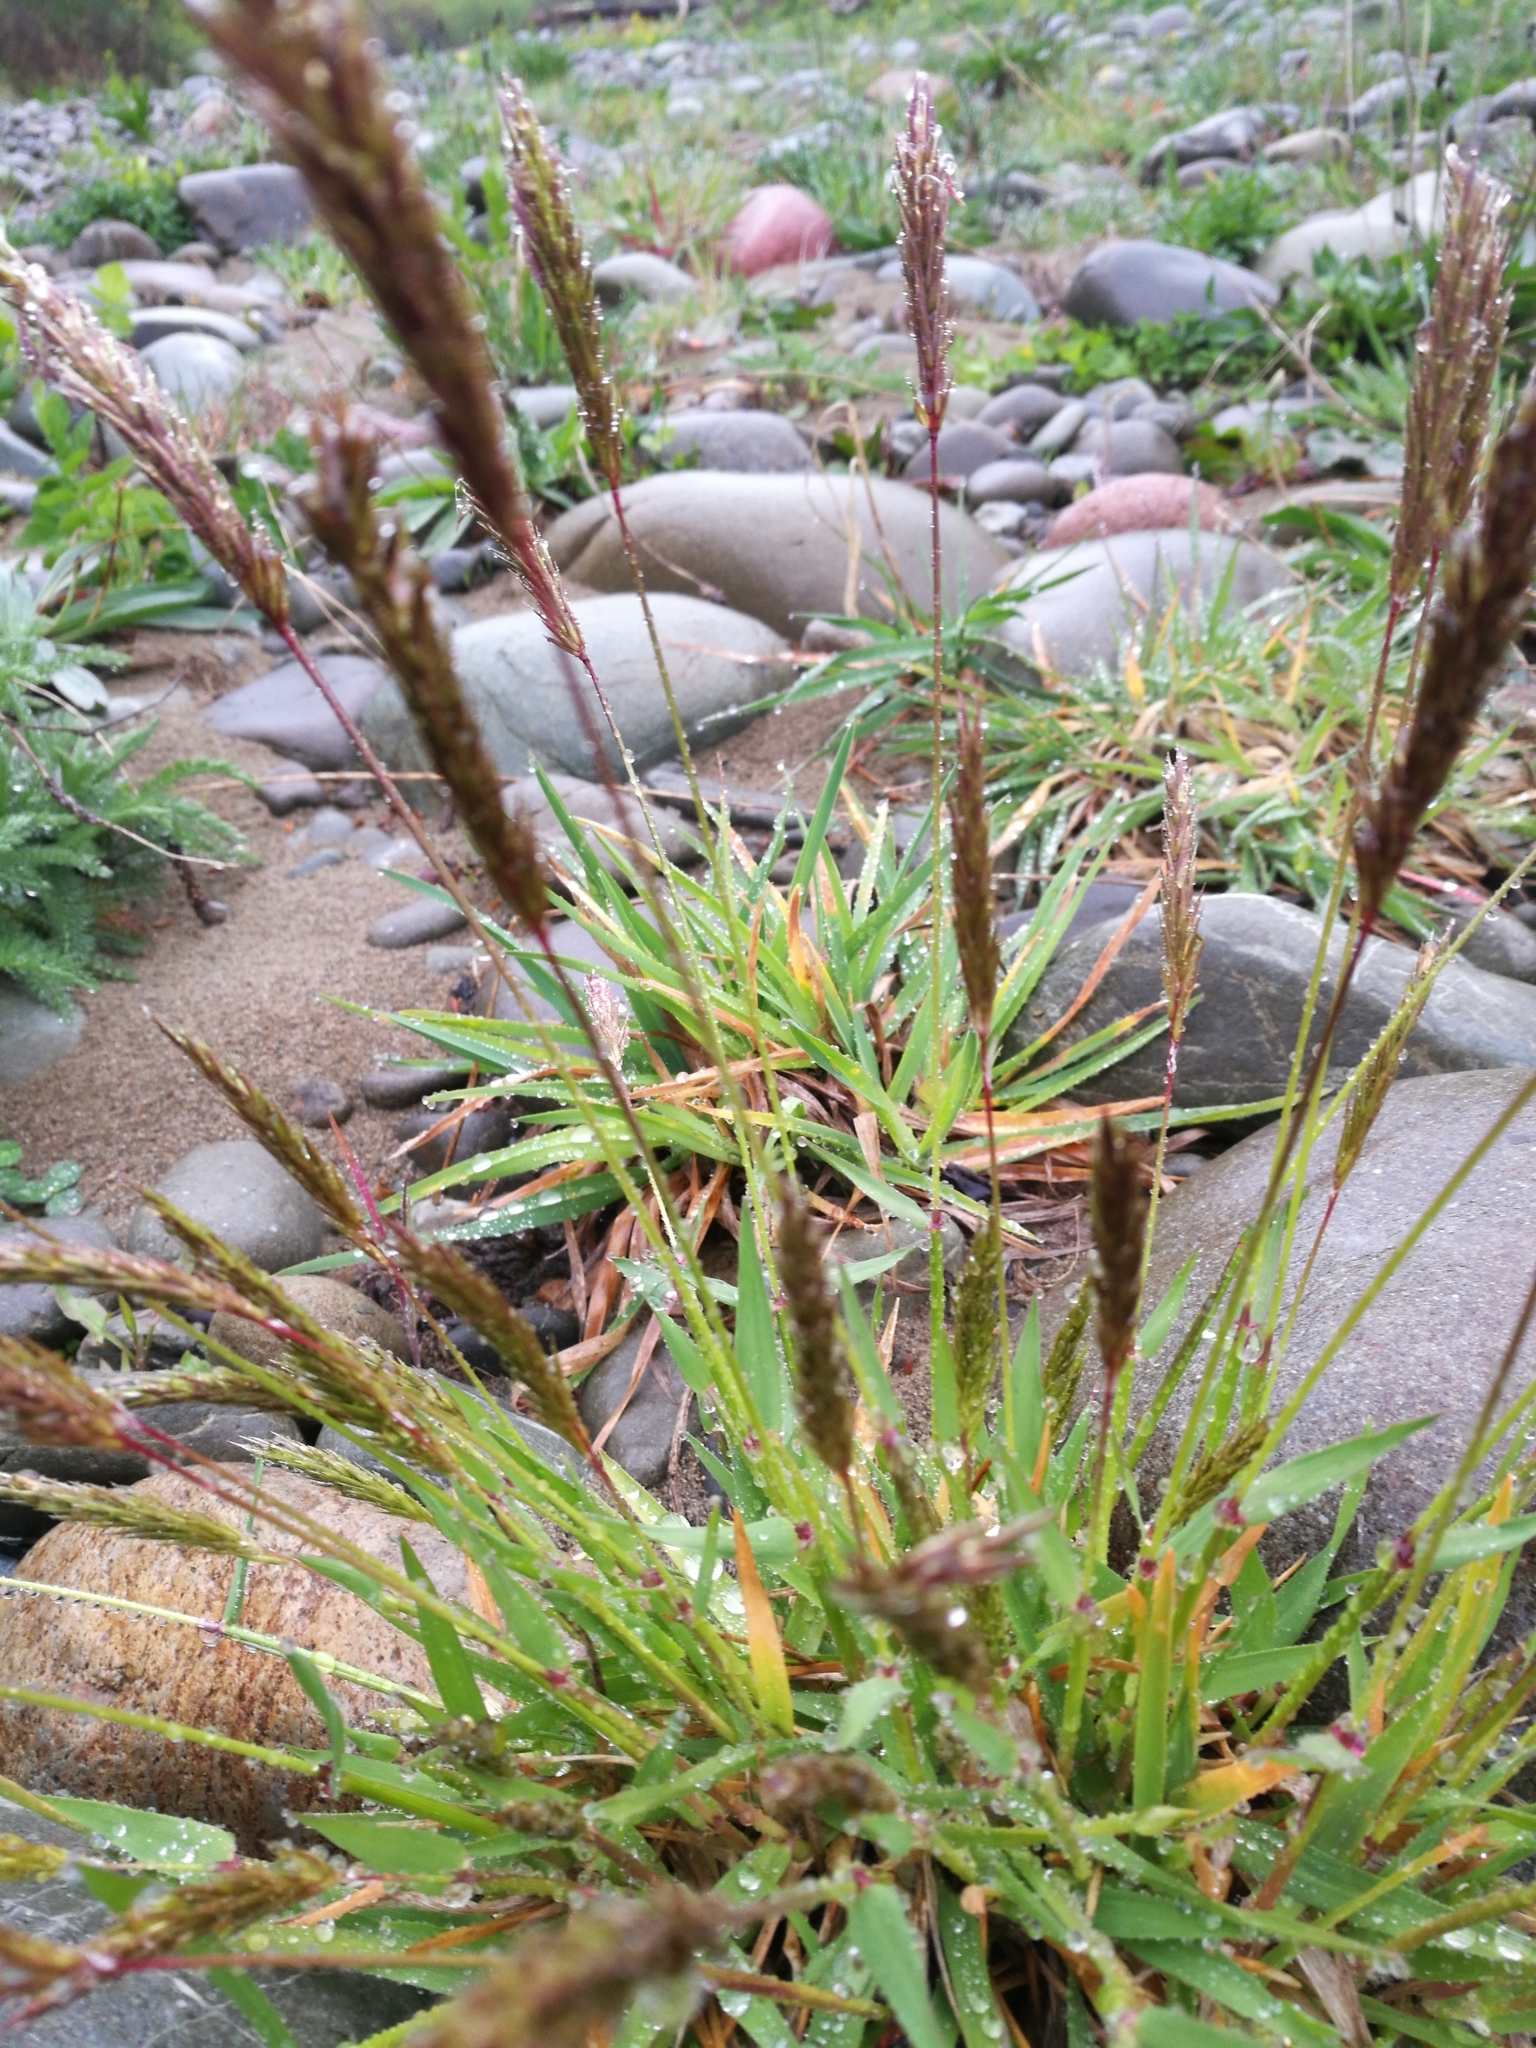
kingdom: Plantae
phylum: Tracheophyta
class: Liliopsida
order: Poales
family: Poaceae
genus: Anthoxanthum
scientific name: Anthoxanthum odoratum
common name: Sweet vernalgrass
